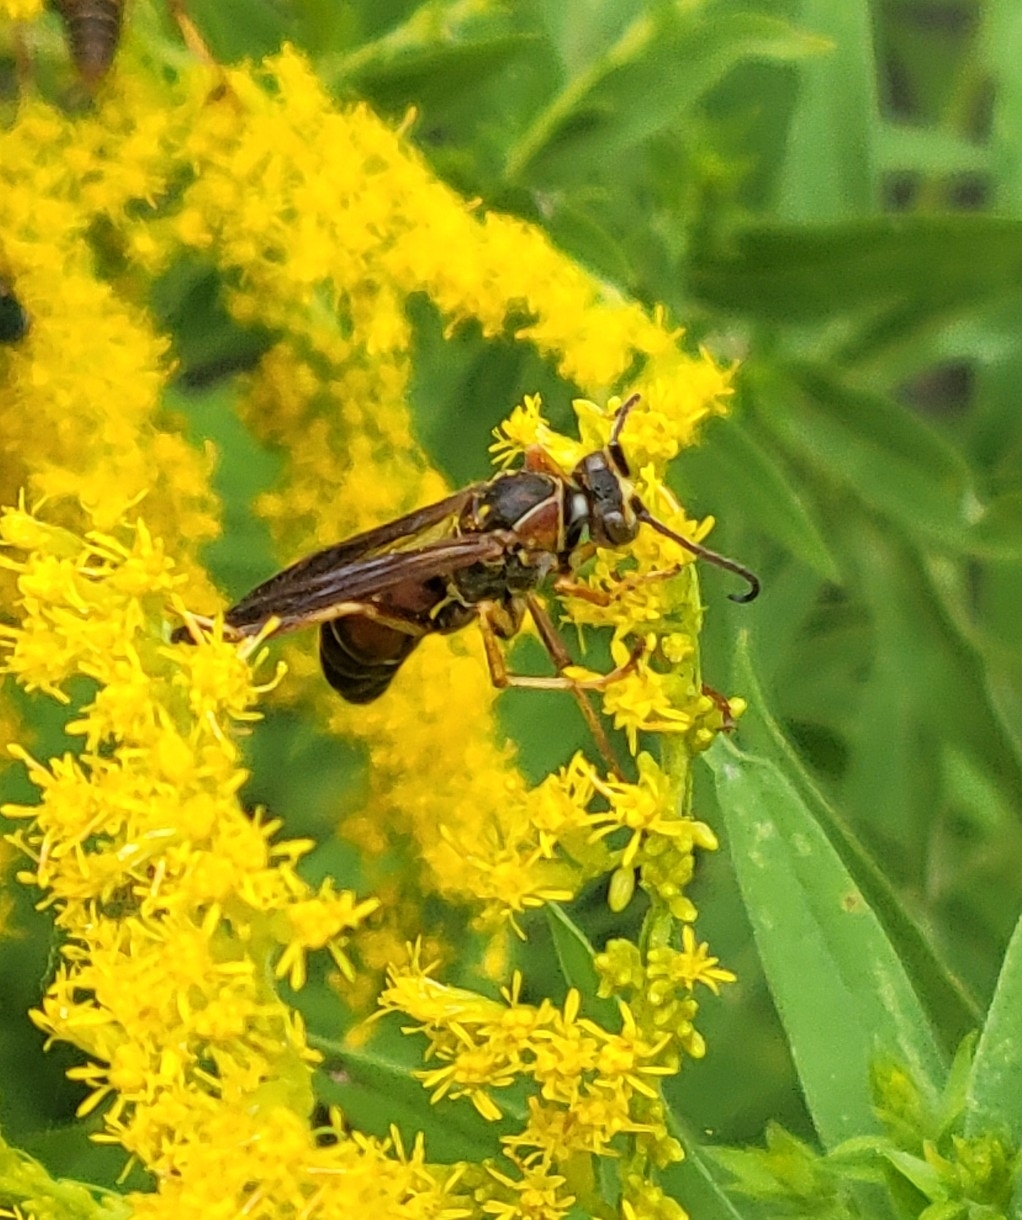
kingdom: Animalia
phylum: Arthropoda
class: Insecta
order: Hymenoptera
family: Eumenidae
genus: Polistes
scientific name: Polistes fuscatus
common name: Dark paper wasp
